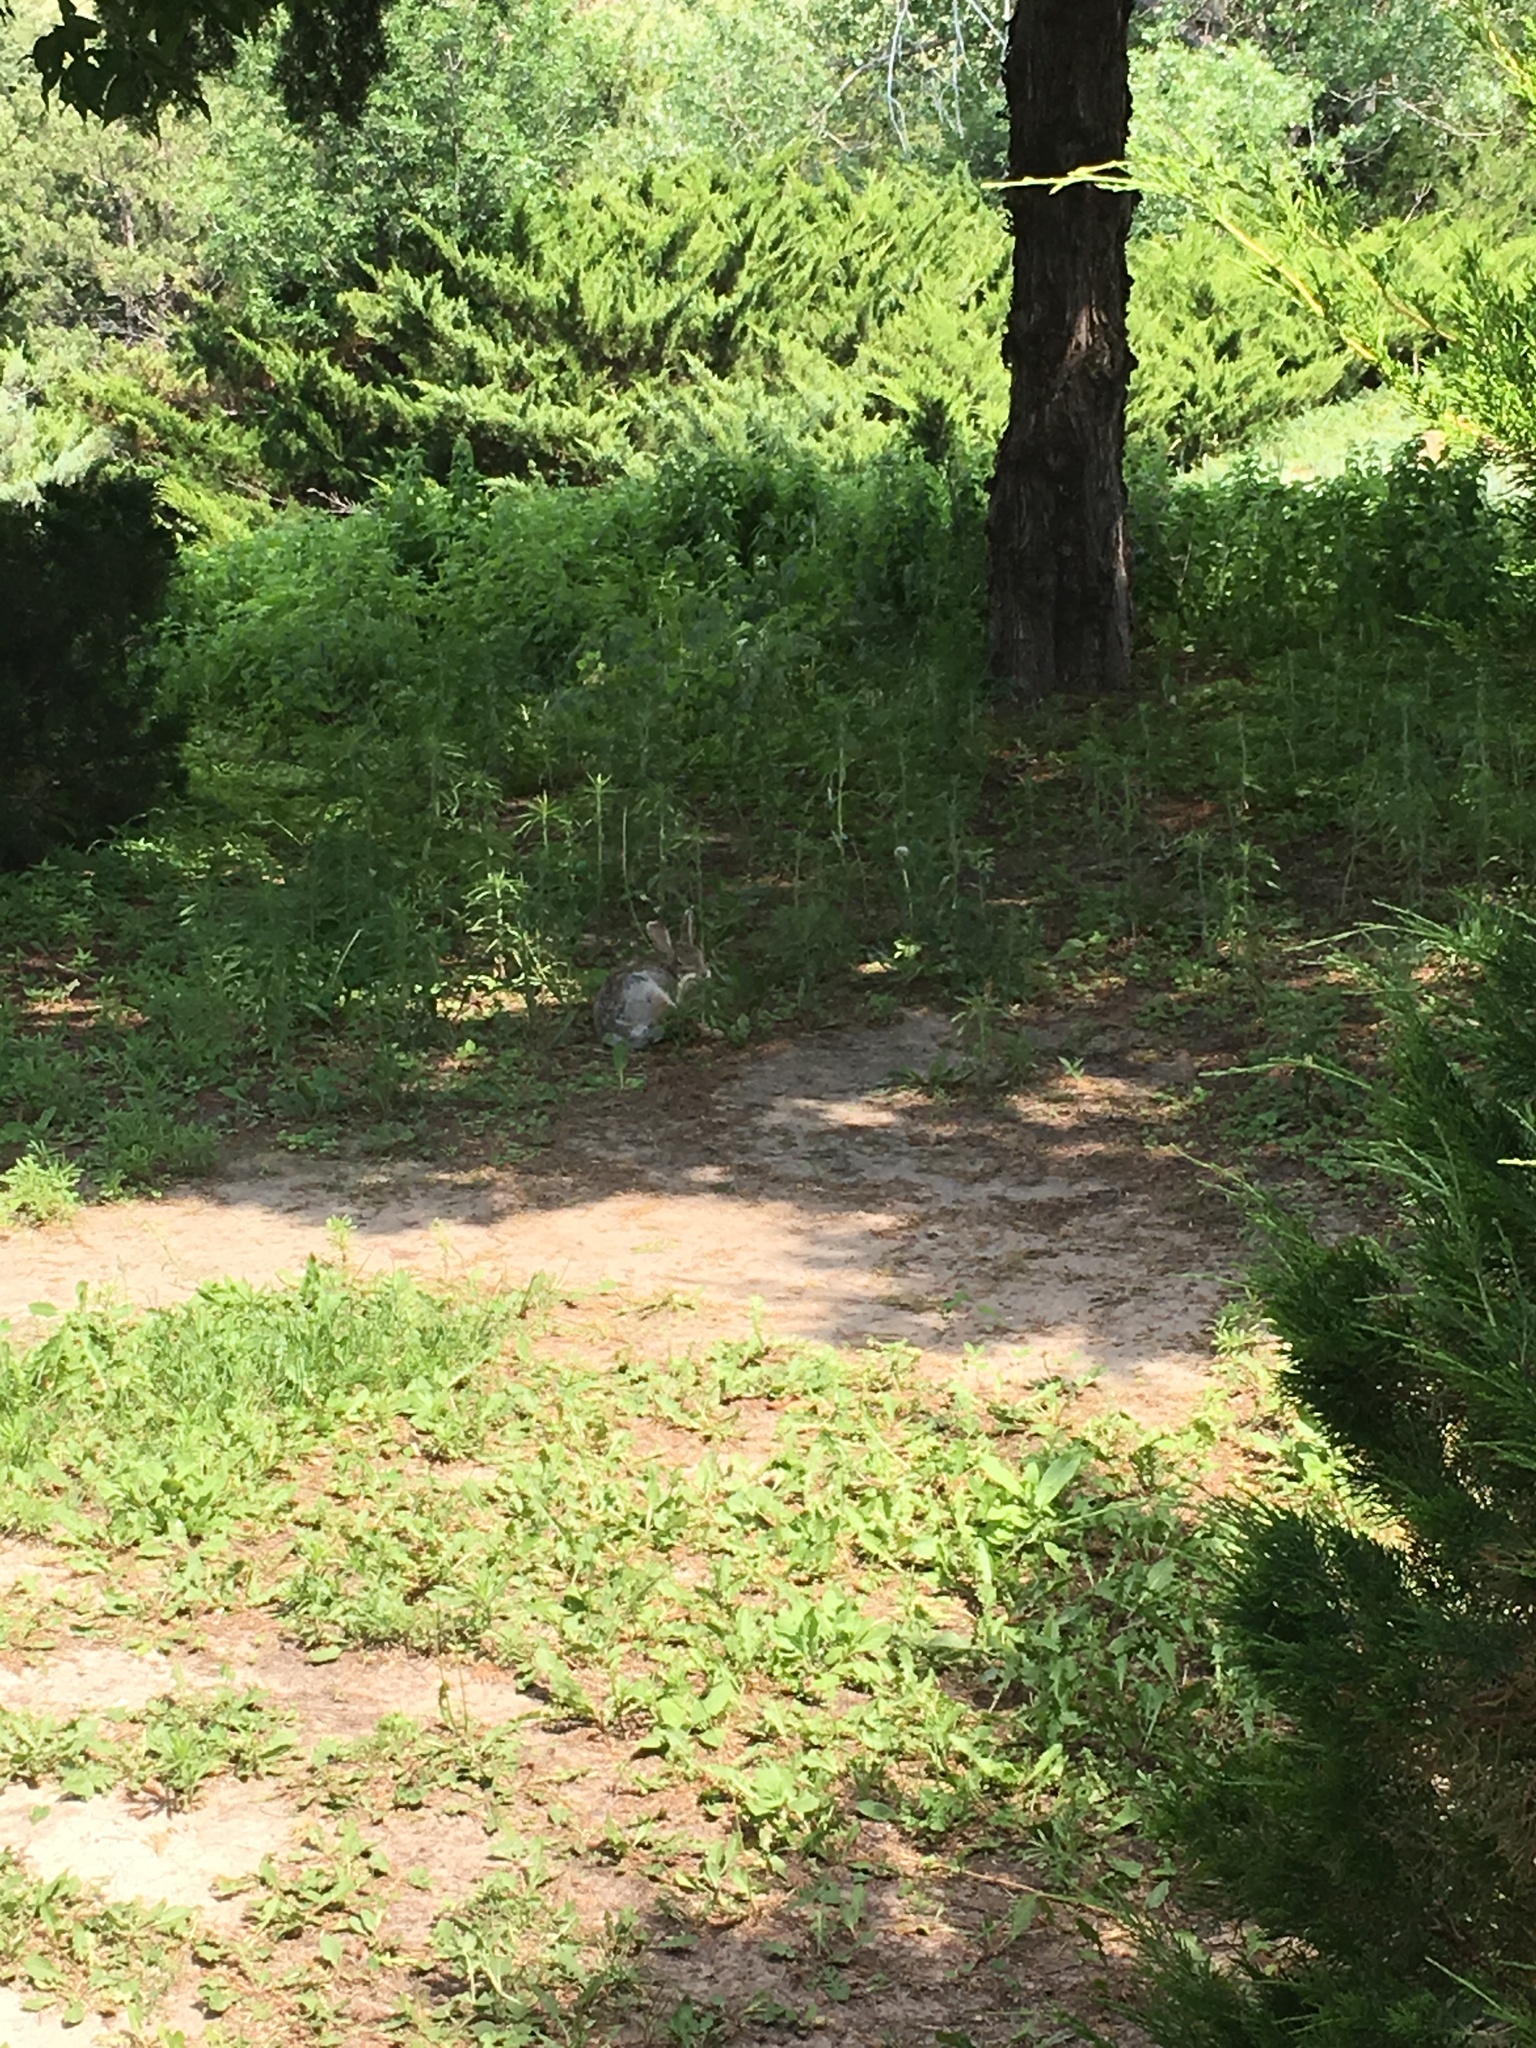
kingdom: Animalia
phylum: Chordata
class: Mammalia
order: Lagomorpha
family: Leporidae
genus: Sylvilagus
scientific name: Sylvilagus floridanus
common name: Eastern cottontail
